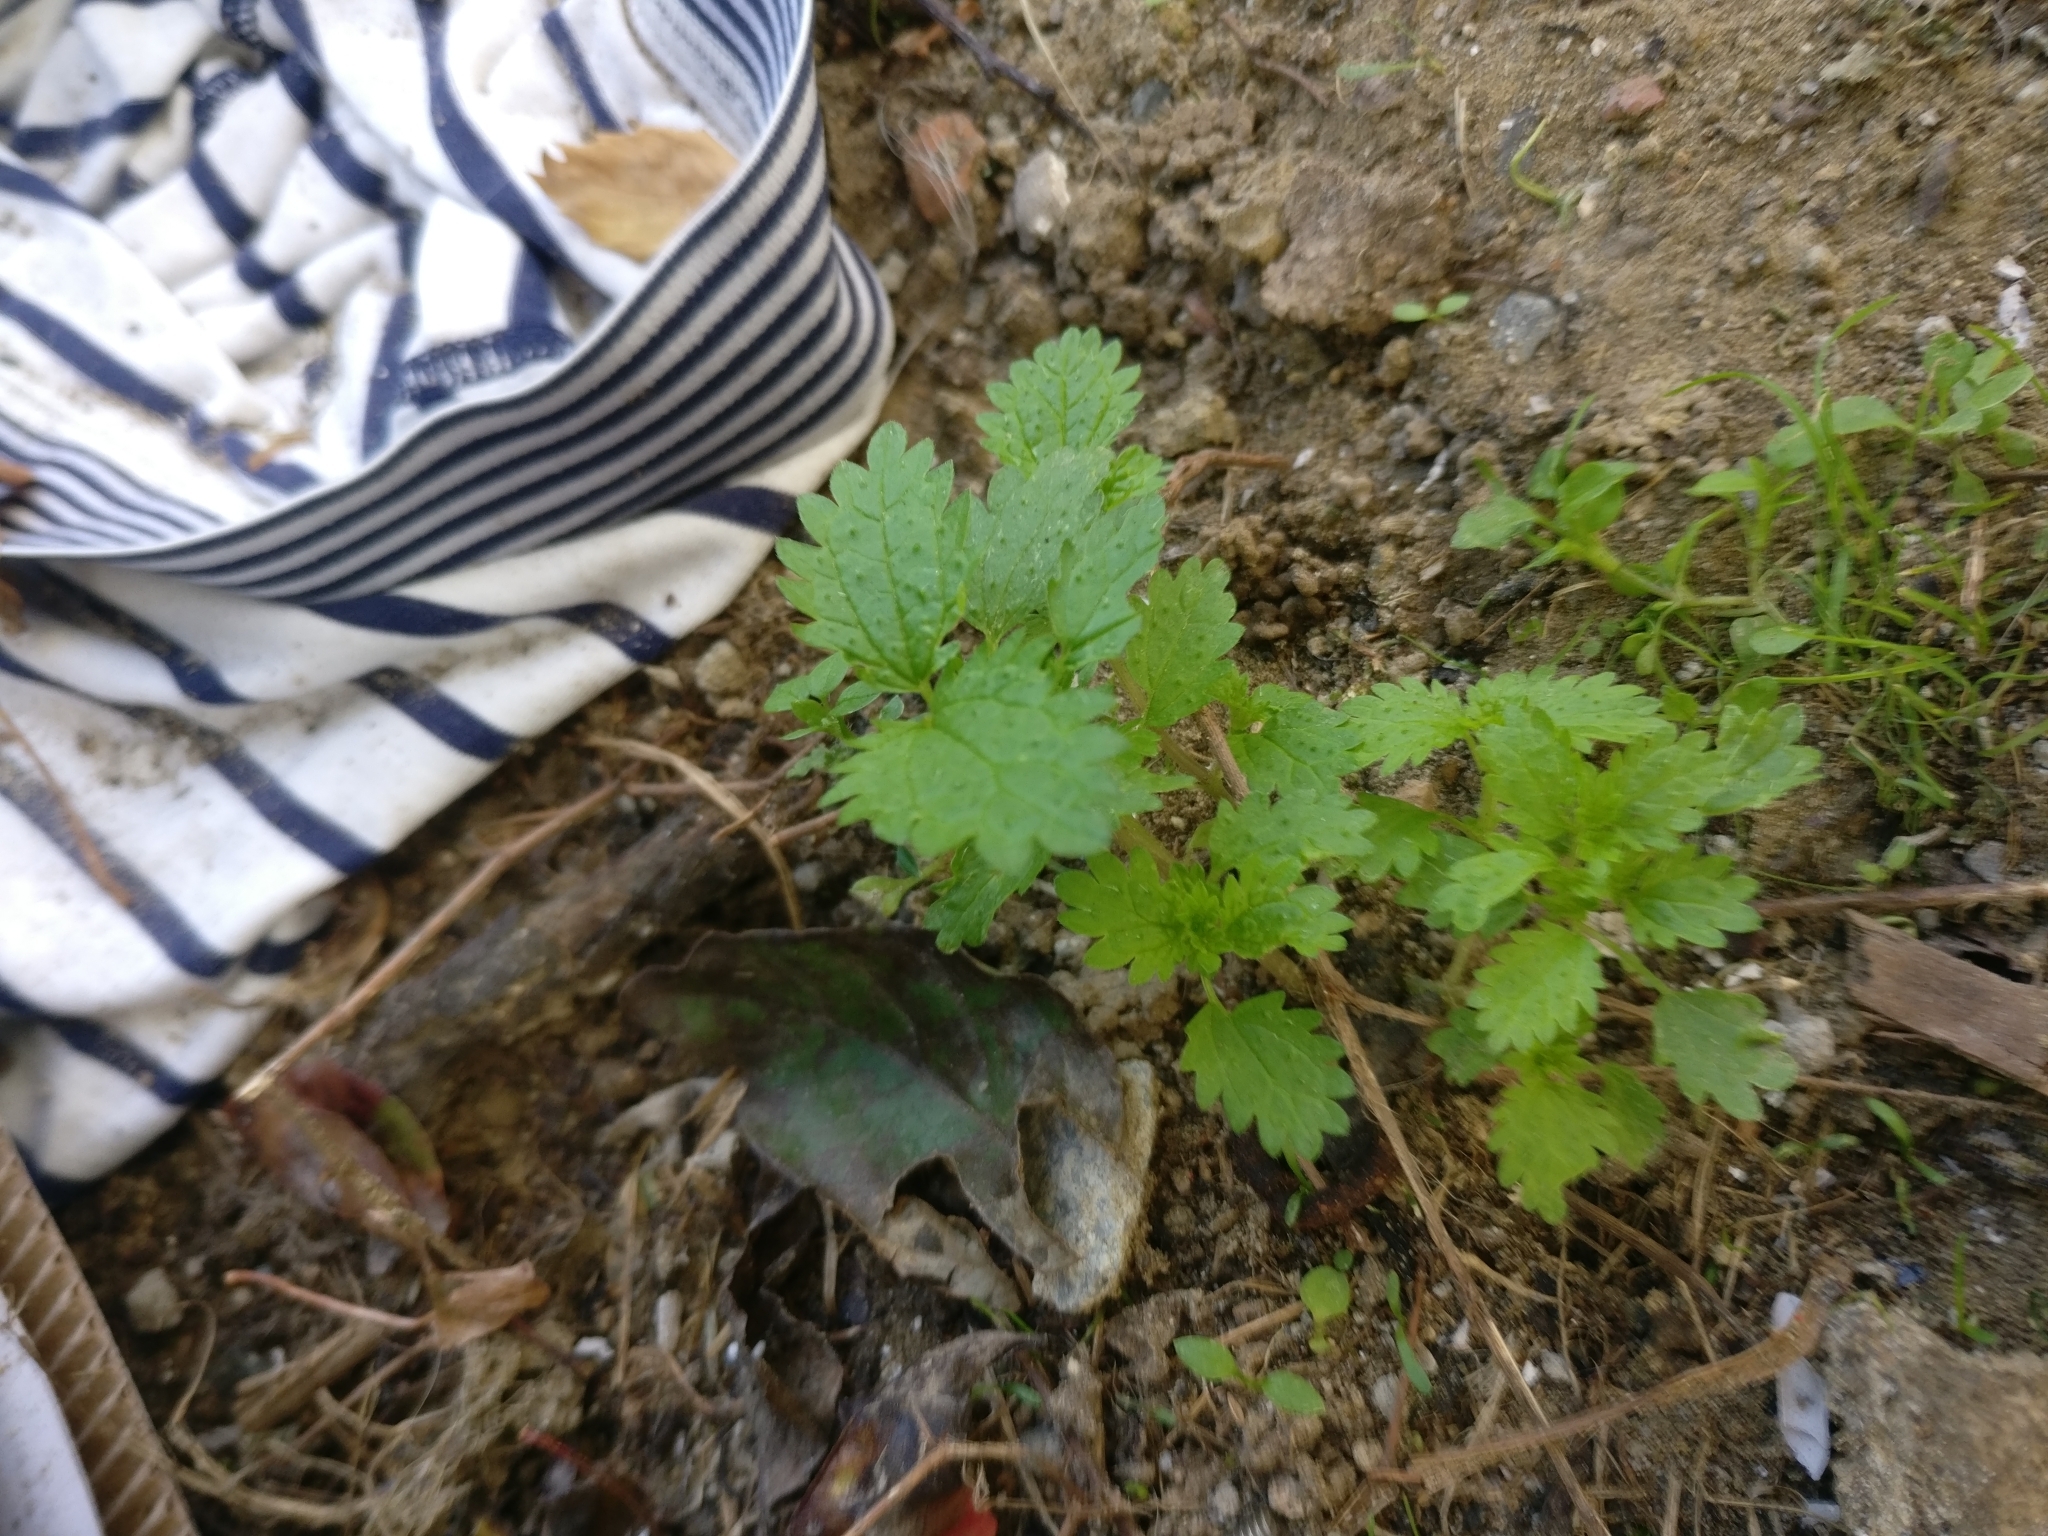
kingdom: Plantae
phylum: Tracheophyta
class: Magnoliopsida
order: Rosales
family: Urticaceae
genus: Urtica
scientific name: Urtica urens
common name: Dwarf nettle
